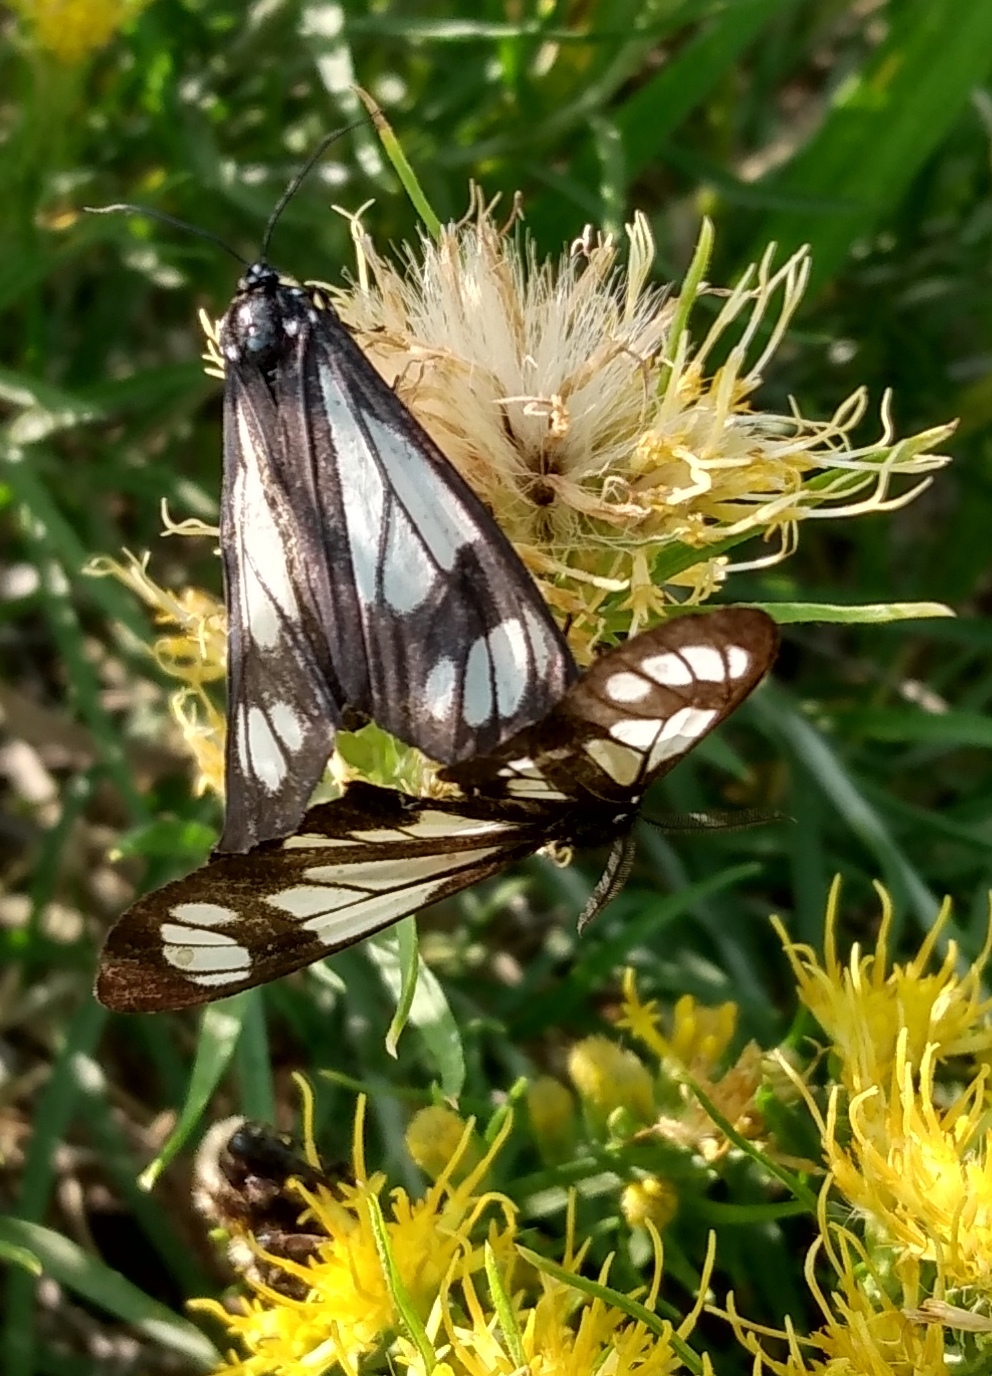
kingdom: Animalia
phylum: Arthropoda
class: Insecta
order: Lepidoptera
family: Erebidae
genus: Gnophaela
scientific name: Gnophaela vermiculata
